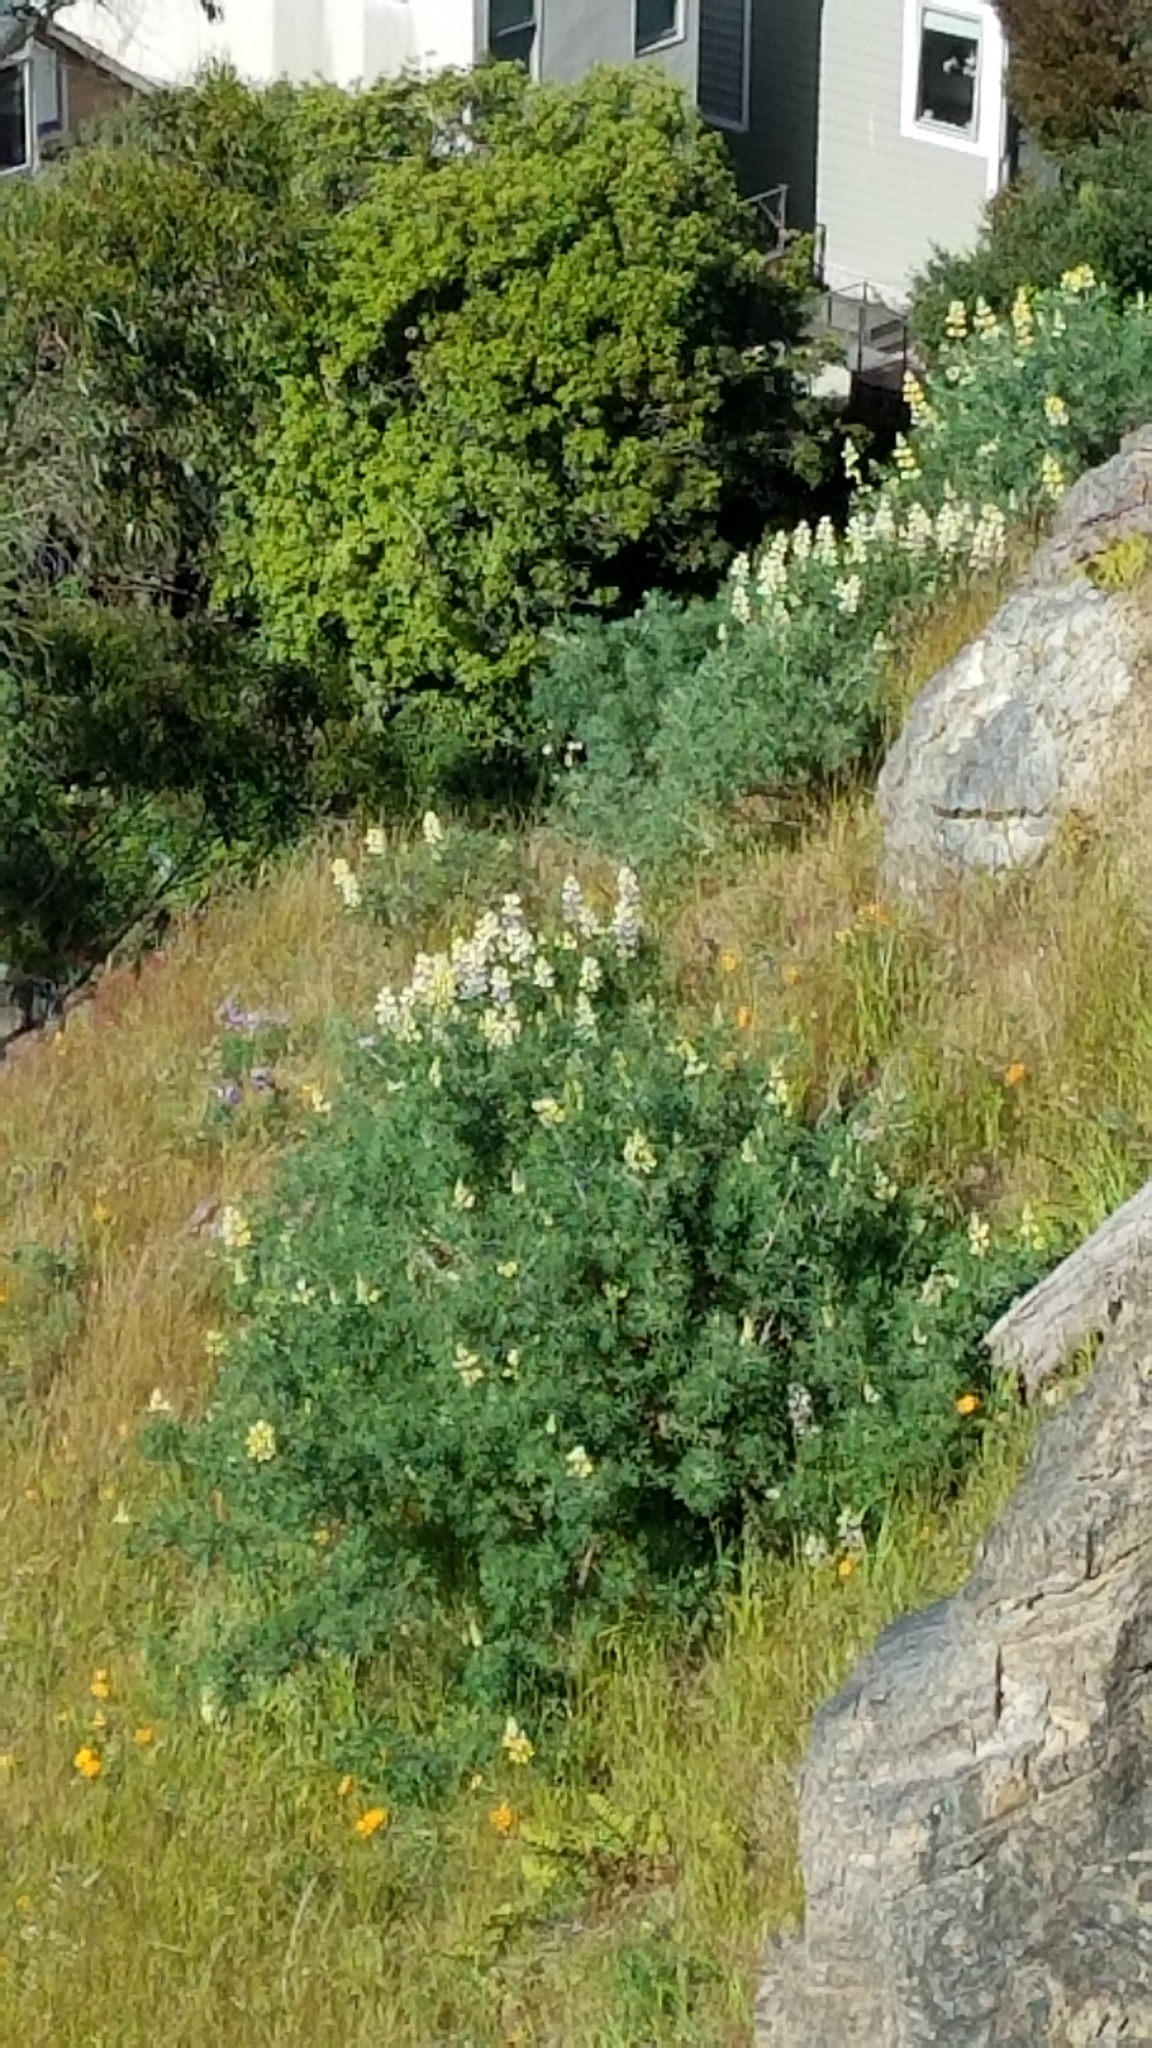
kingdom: Plantae
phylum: Tracheophyta
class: Magnoliopsida
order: Fabales
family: Fabaceae
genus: Lupinus
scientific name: Lupinus arboreus
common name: Yellow bush lupine
